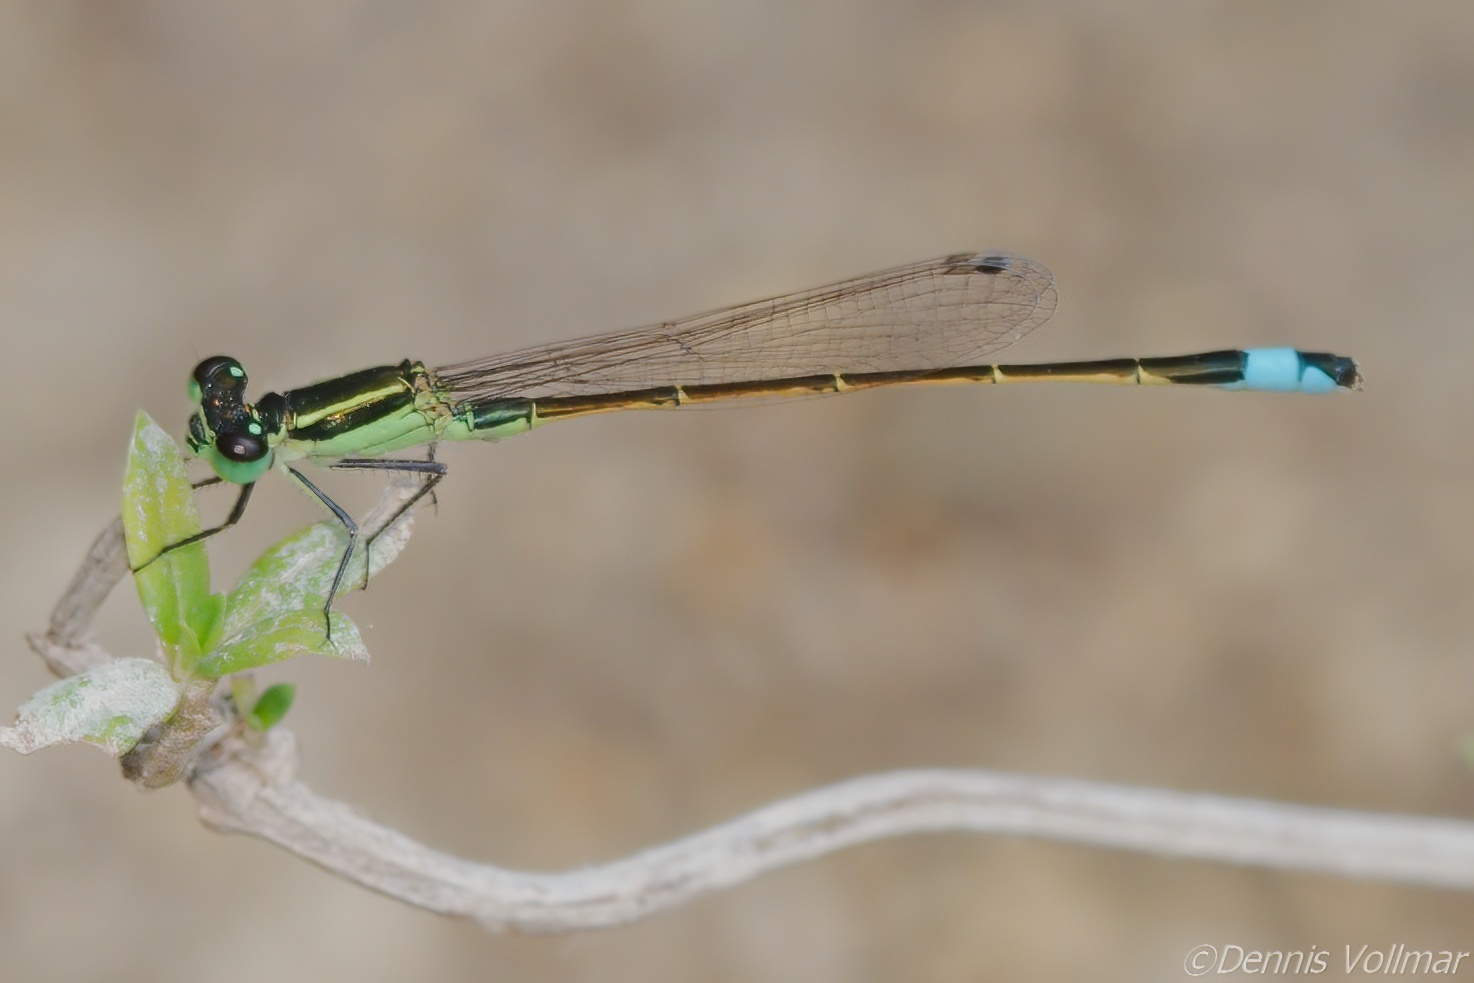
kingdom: Animalia
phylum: Arthropoda
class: Insecta
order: Odonata
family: Coenagrionidae
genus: Ischnura
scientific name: Ischnura ramburii
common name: Rambur's forktail
